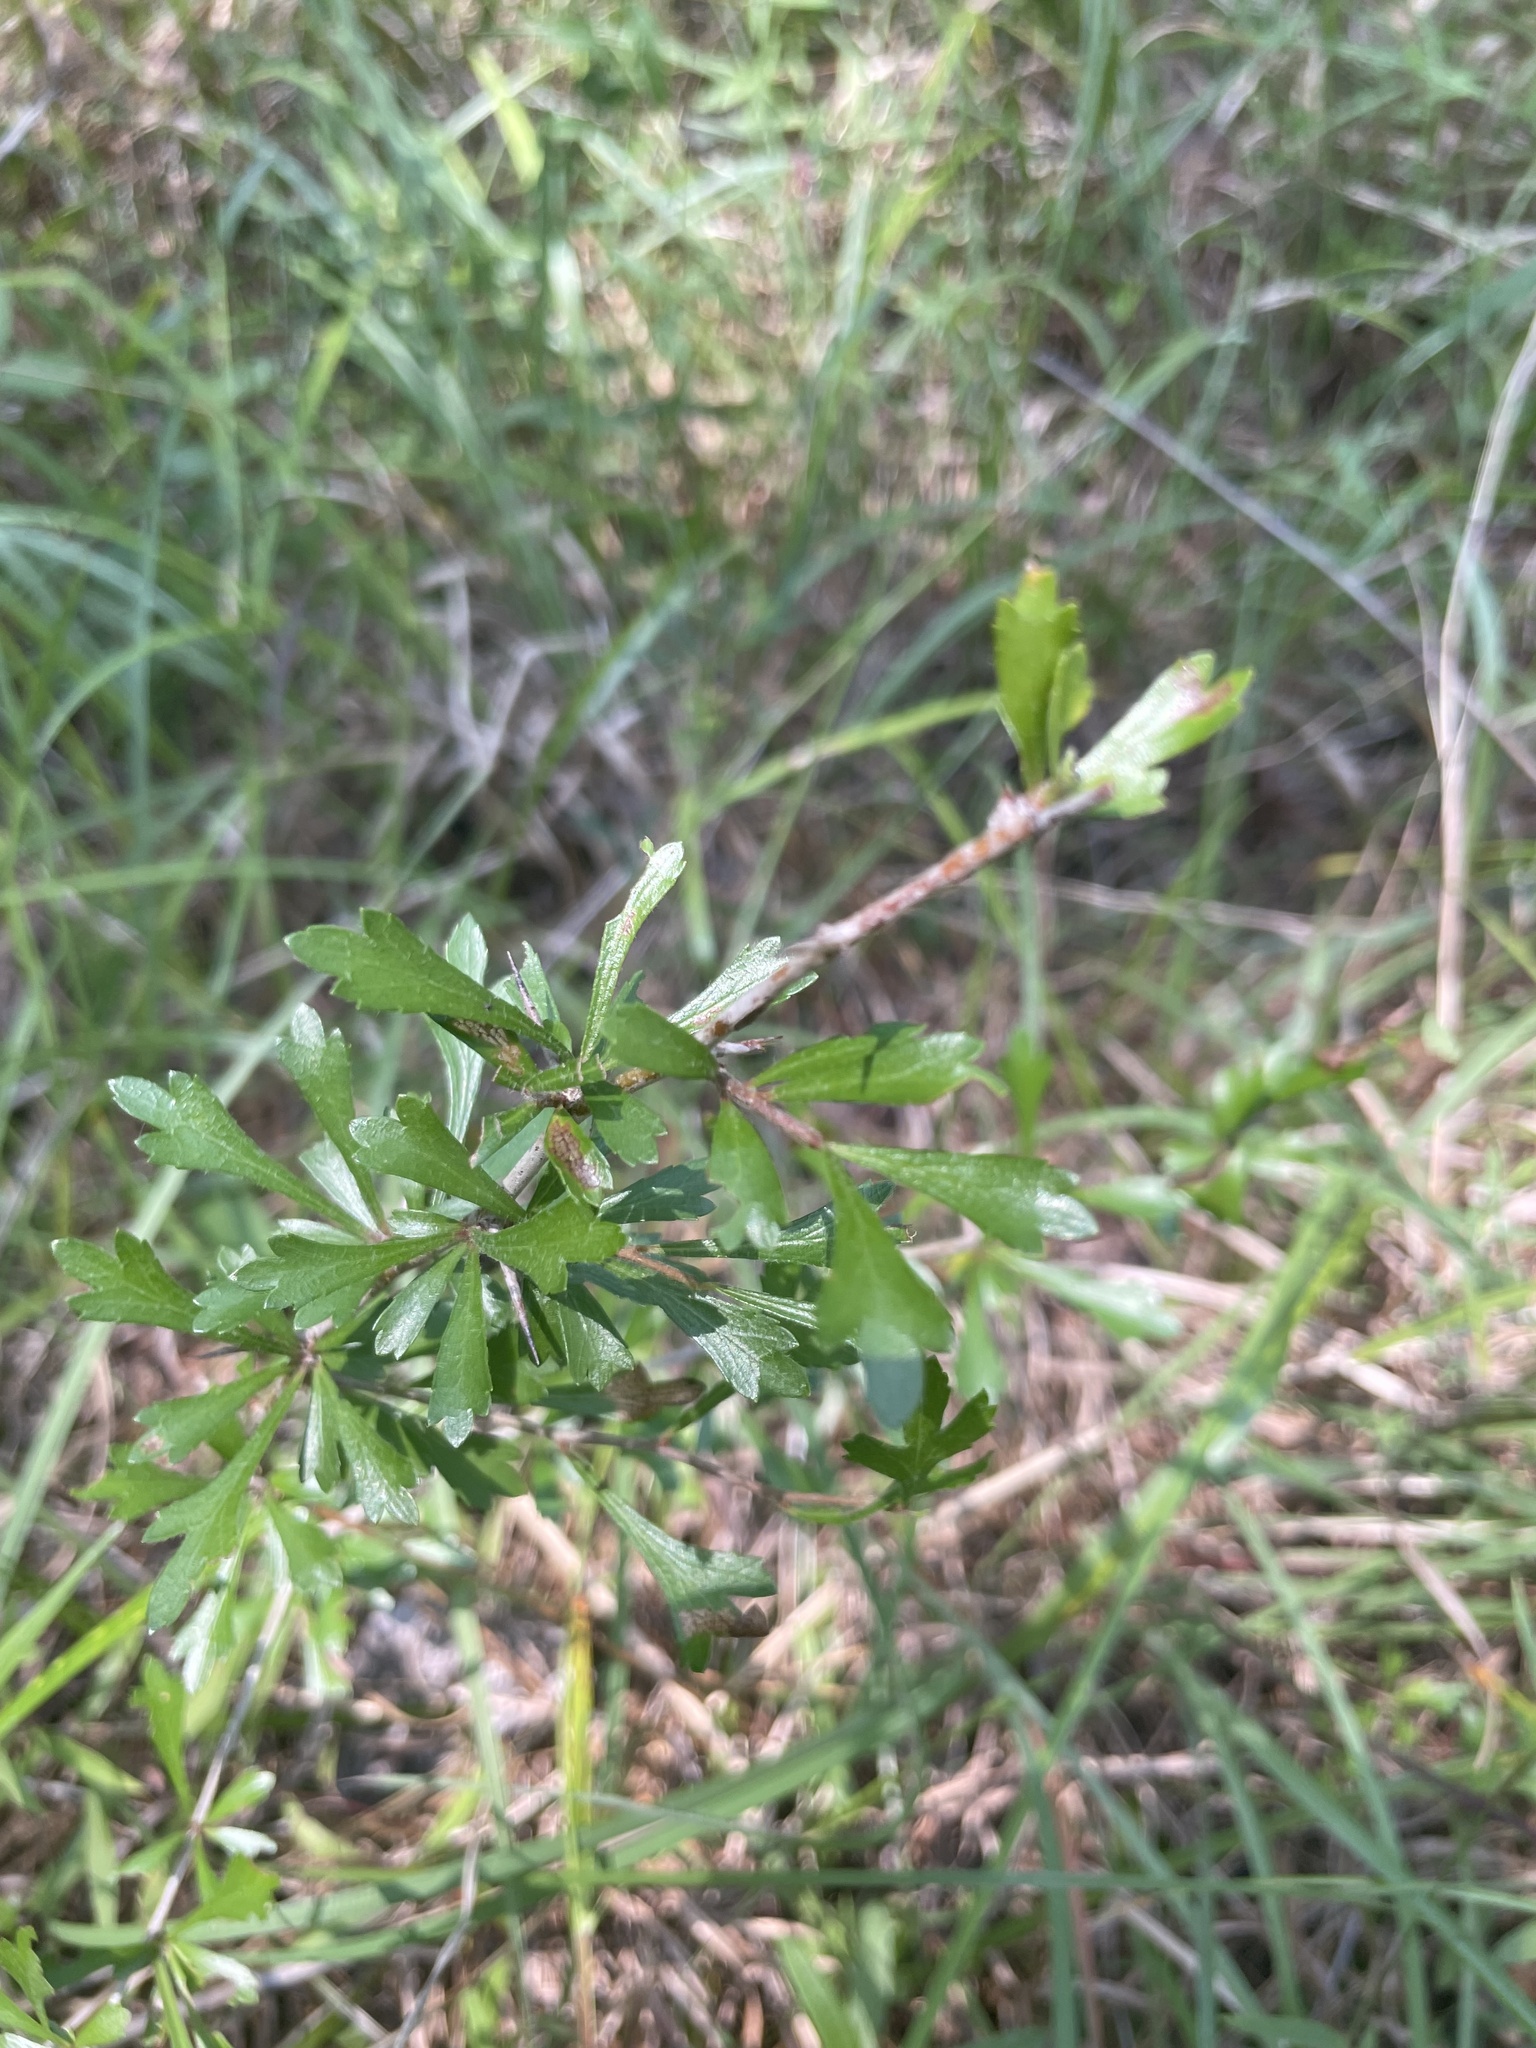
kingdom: Plantae
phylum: Tracheophyta
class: Magnoliopsida
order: Rosales
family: Rosaceae
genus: Crataegus
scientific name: Crataegus spathulata
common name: Littlehip hawthorn
